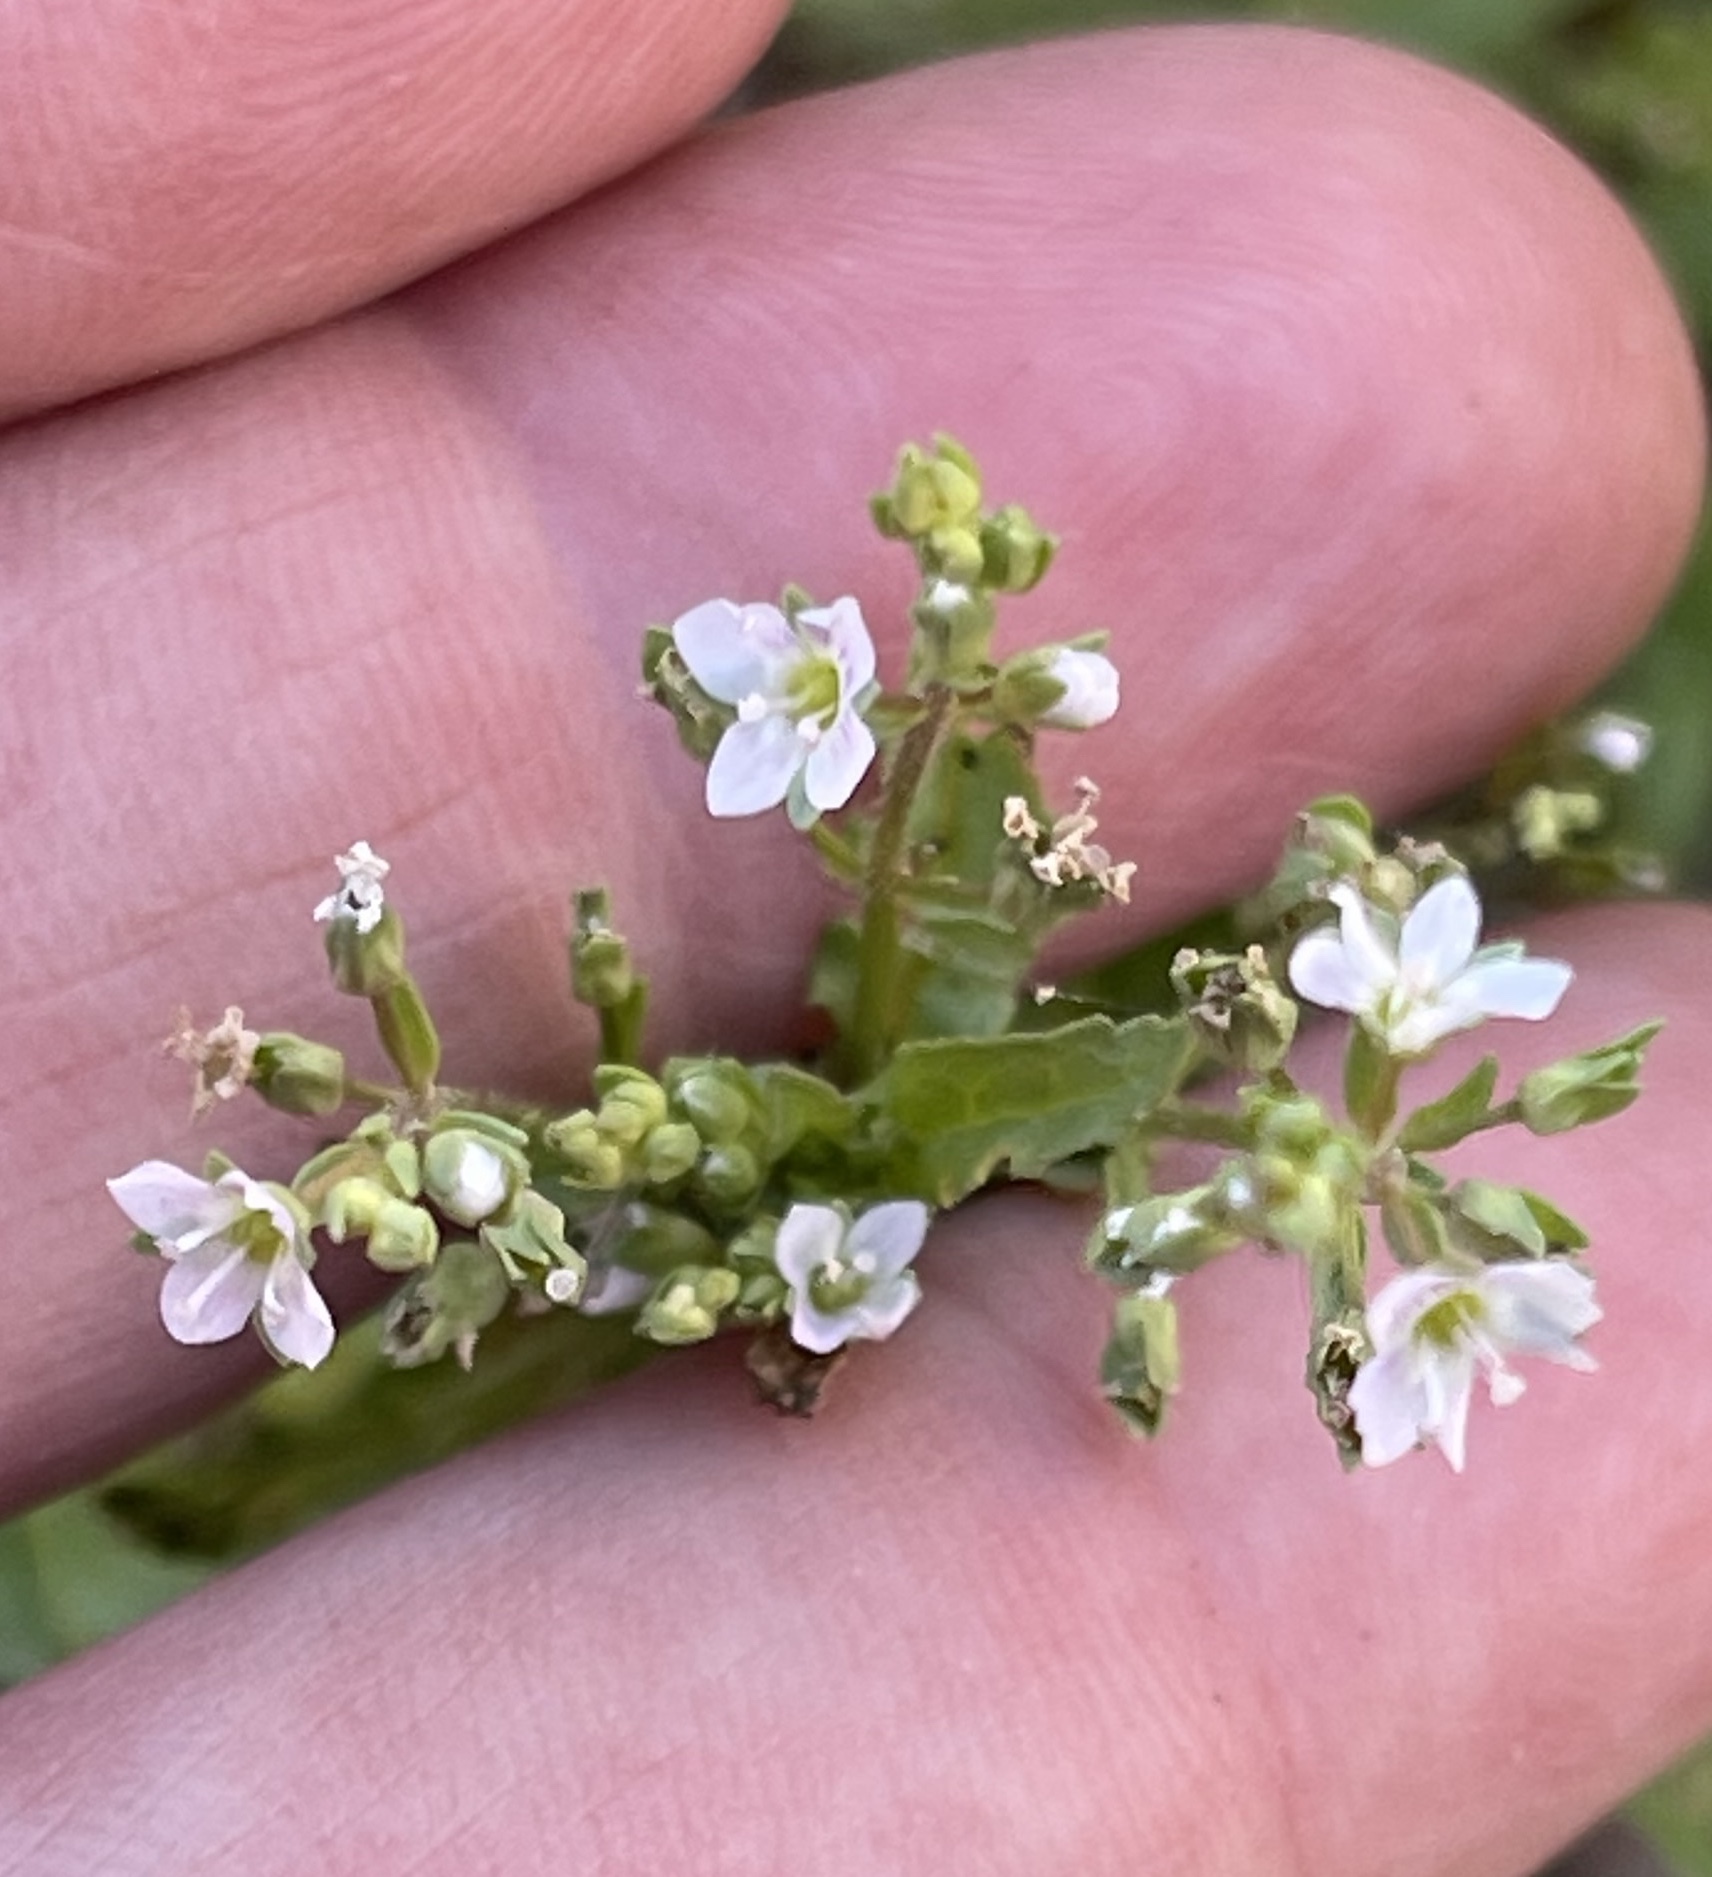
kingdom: Plantae
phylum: Tracheophyta
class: Magnoliopsida
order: Lamiales
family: Plantaginaceae
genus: Veronica
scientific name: Veronica catenata
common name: Pink water-speedwell
